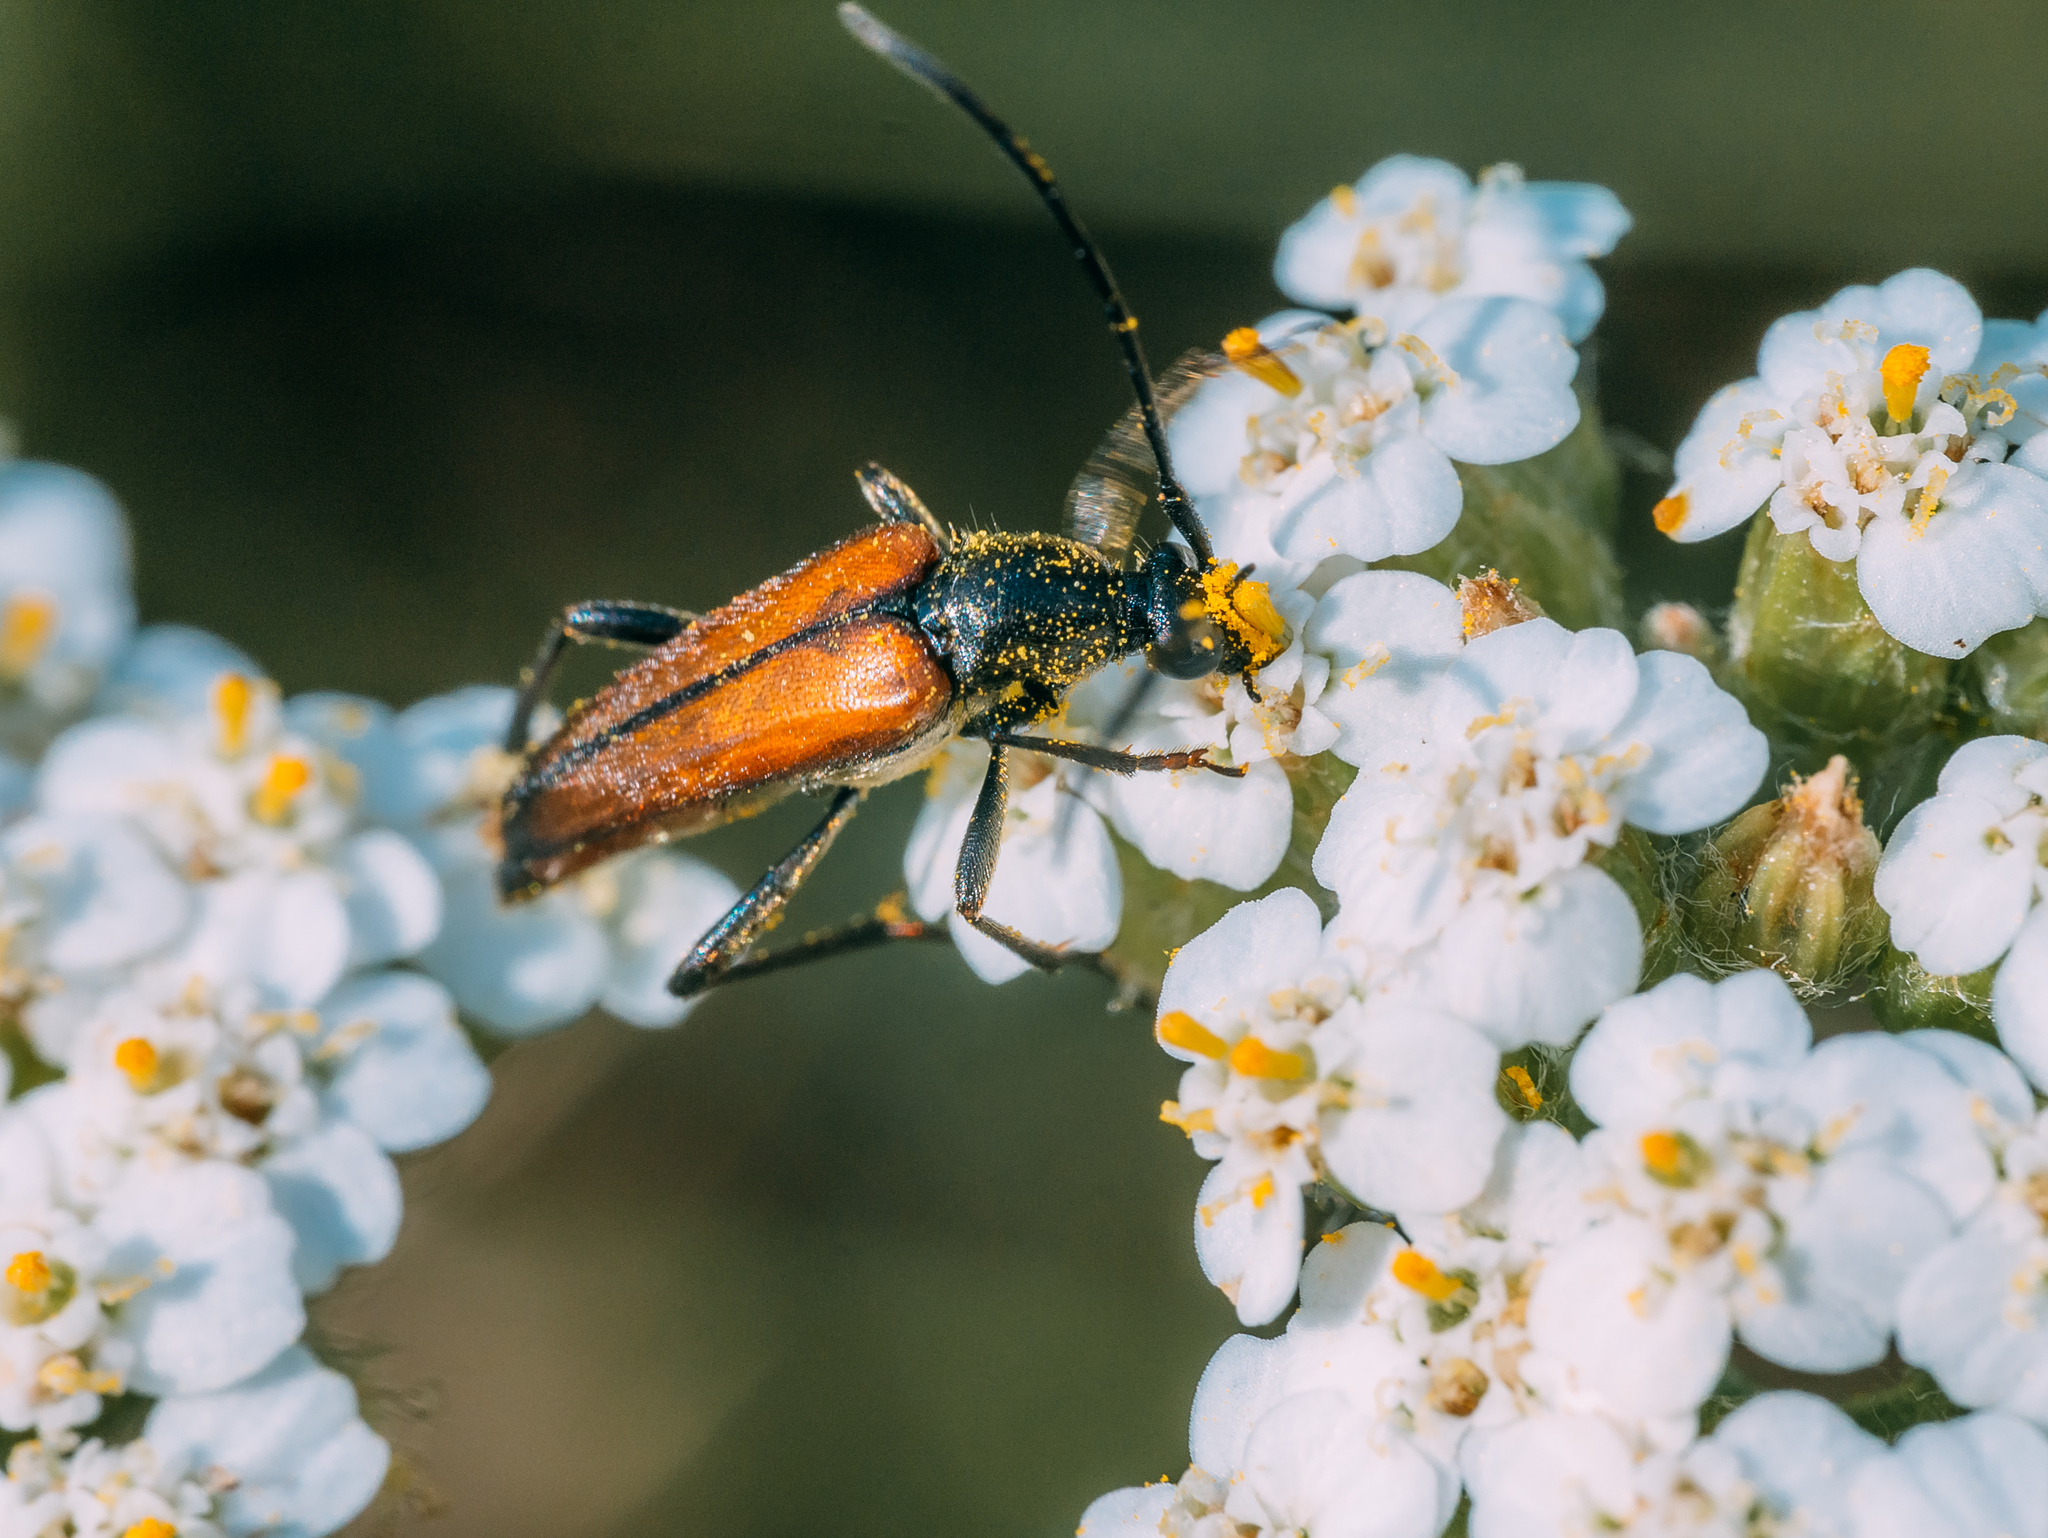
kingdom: Animalia
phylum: Arthropoda
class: Insecta
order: Coleoptera
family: Cerambycidae
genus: Stenurella
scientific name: Stenurella bifasciata
